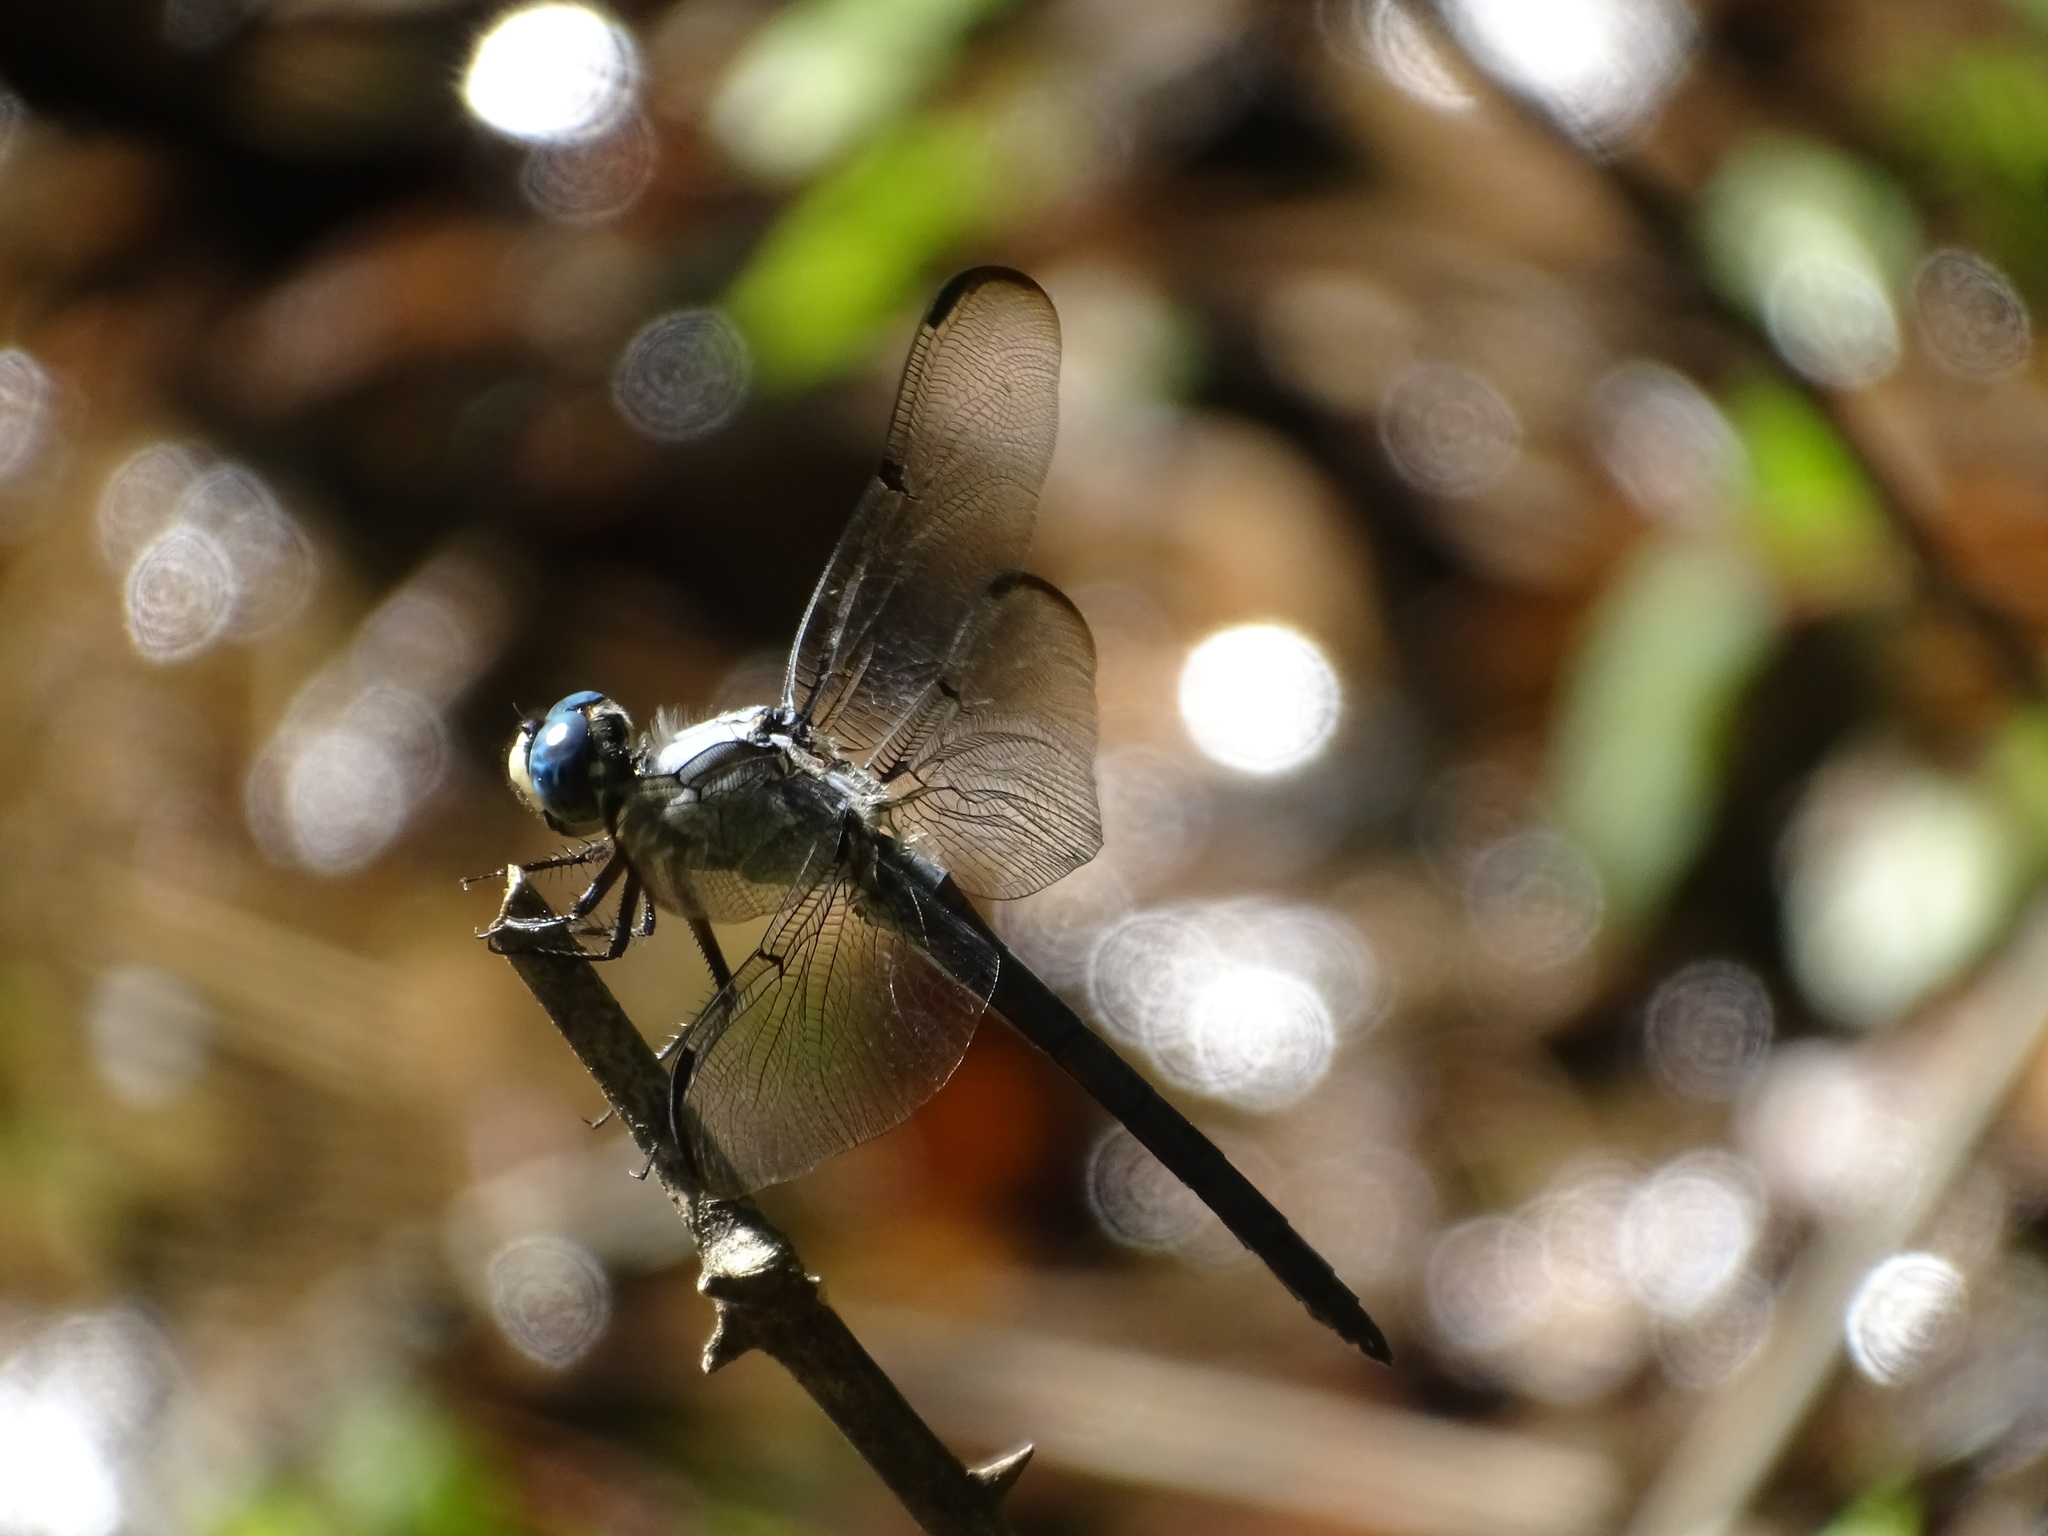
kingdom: Animalia
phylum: Arthropoda
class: Insecta
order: Odonata
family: Libellulidae
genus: Libellula
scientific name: Libellula vibrans
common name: Great blue skimmer
